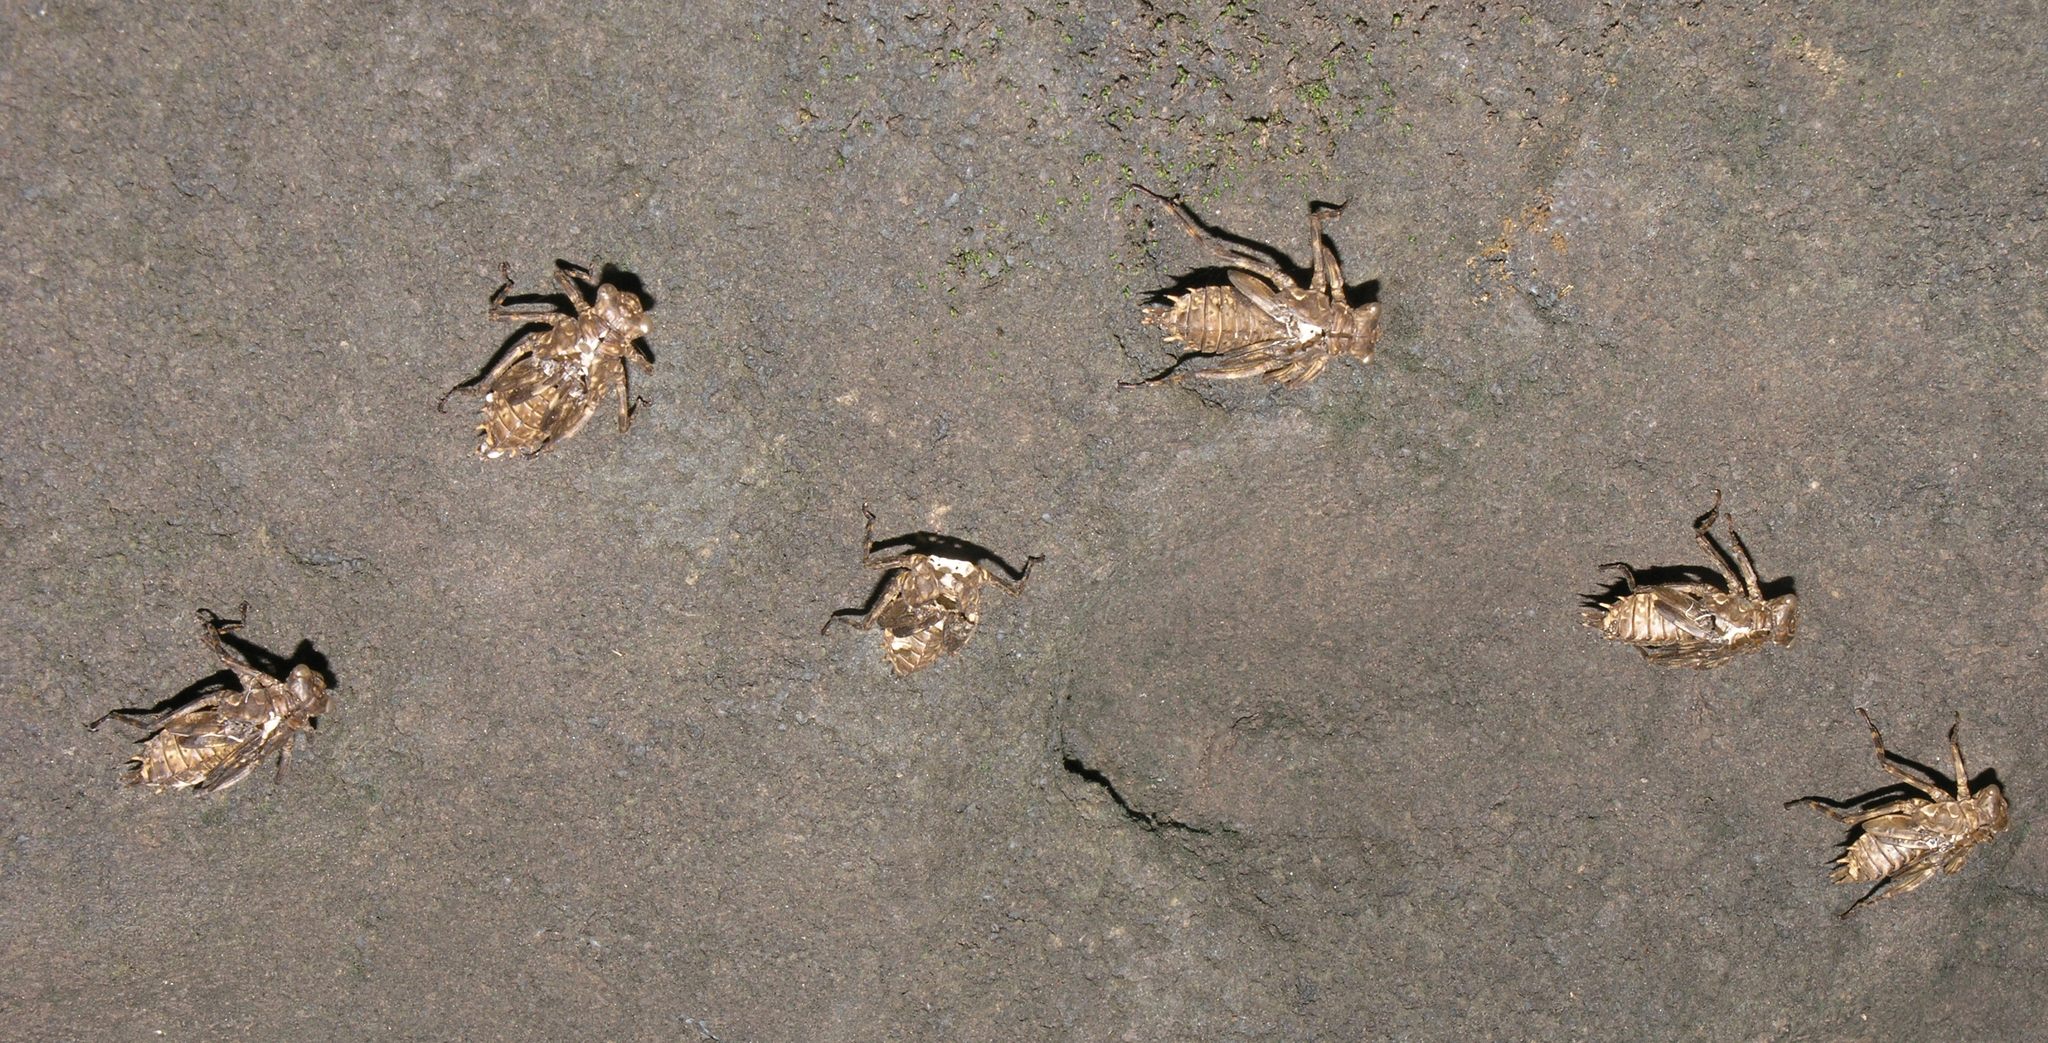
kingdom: Animalia
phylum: Arthropoda
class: Insecta
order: Odonata
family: Libellulidae
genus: Zygonyx
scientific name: Zygonyx iris
